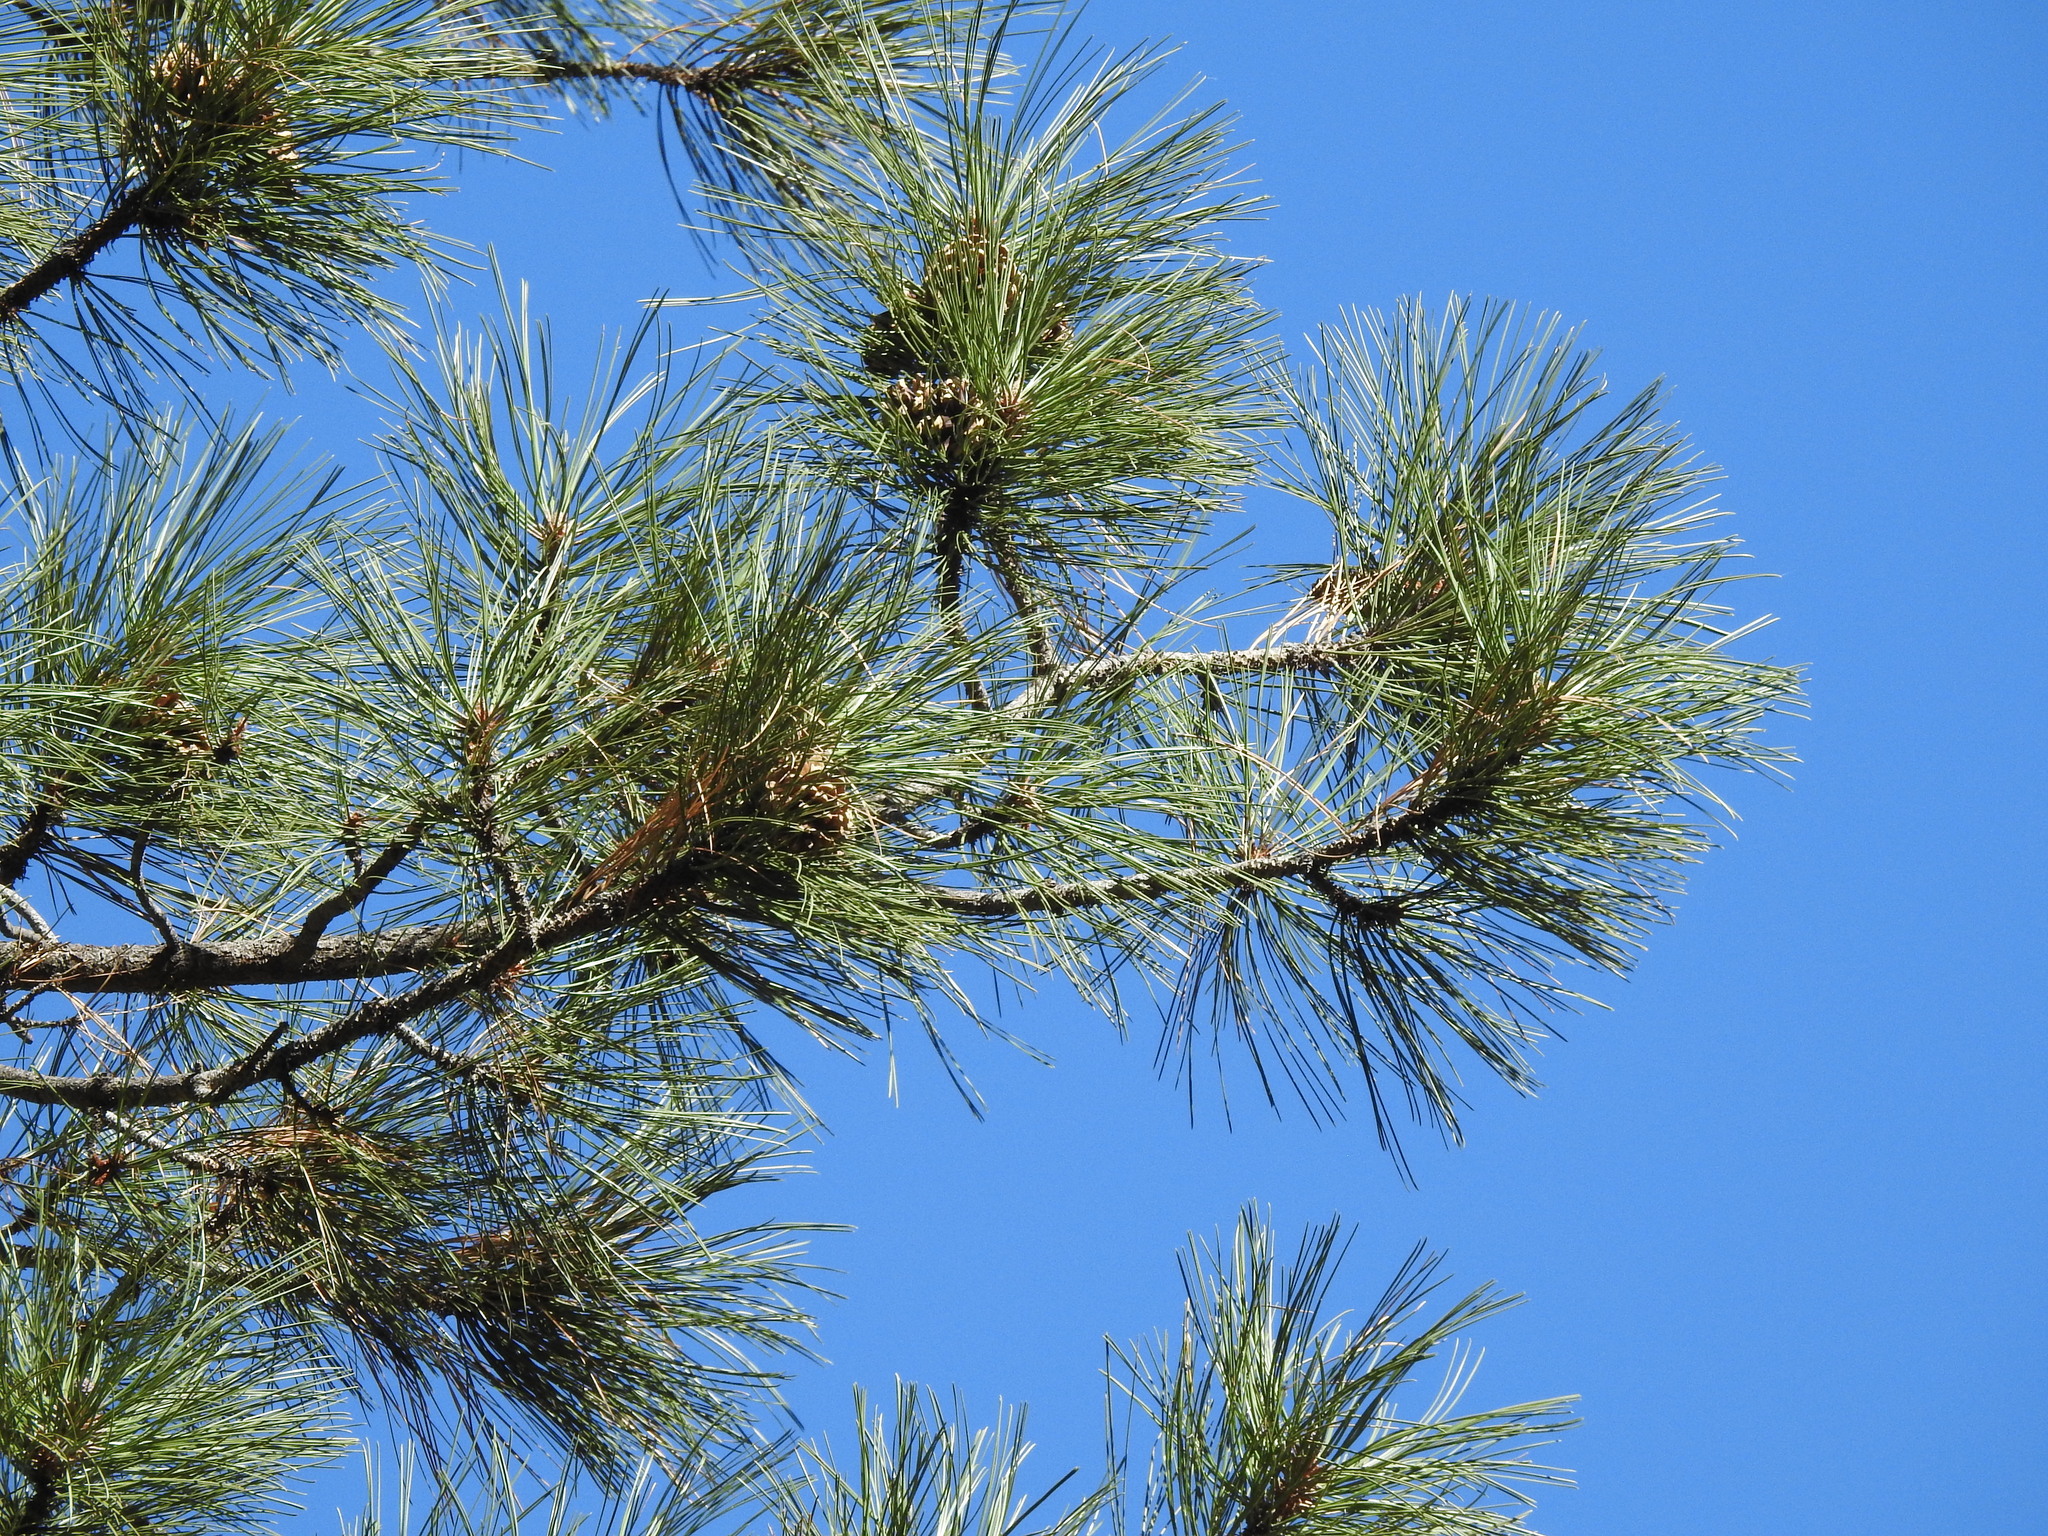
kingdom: Plantae
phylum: Tracheophyta
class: Pinopsida
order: Pinales
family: Pinaceae
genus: Pinus
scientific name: Pinus ponderosa
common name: Western yellow-pine
